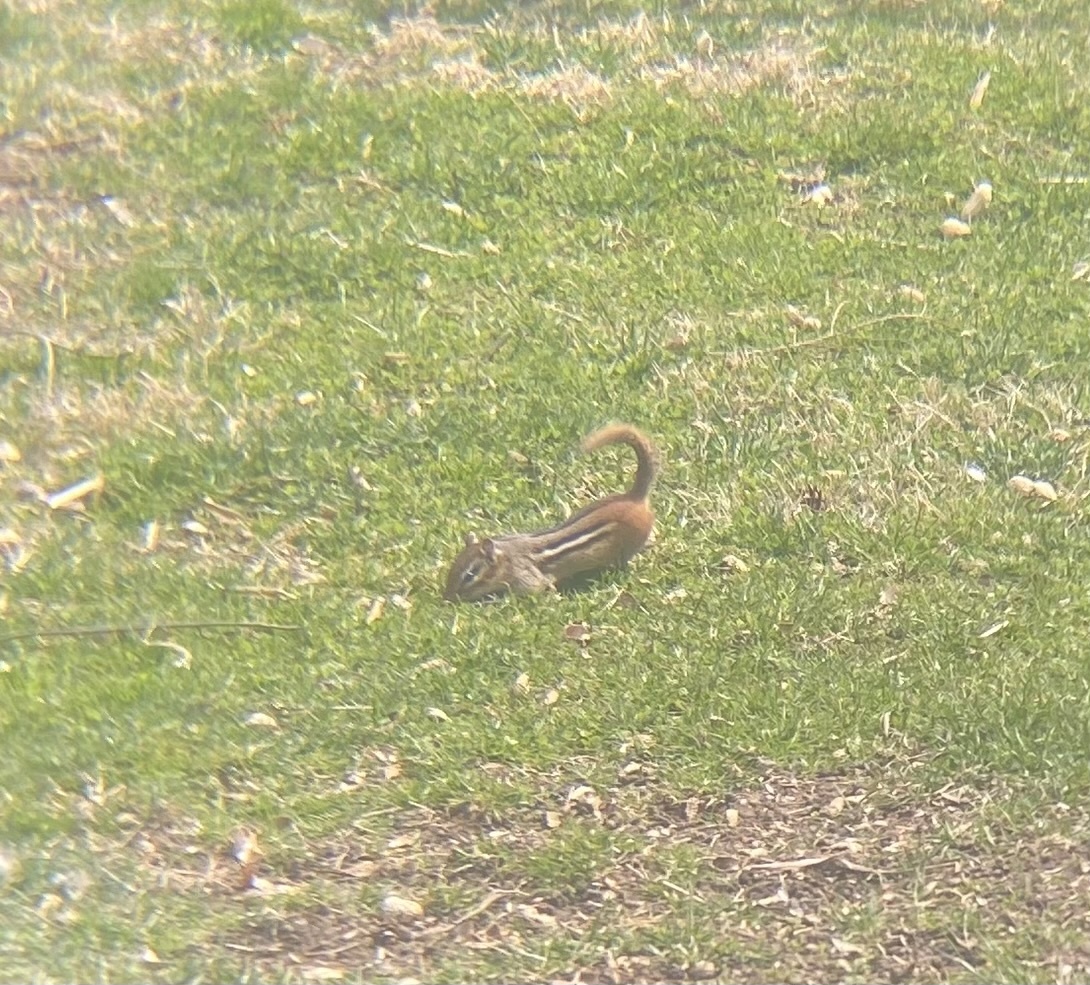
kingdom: Animalia
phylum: Chordata
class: Mammalia
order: Rodentia
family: Sciuridae
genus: Tamias
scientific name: Tamias striatus
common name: Eastern chipmunk
